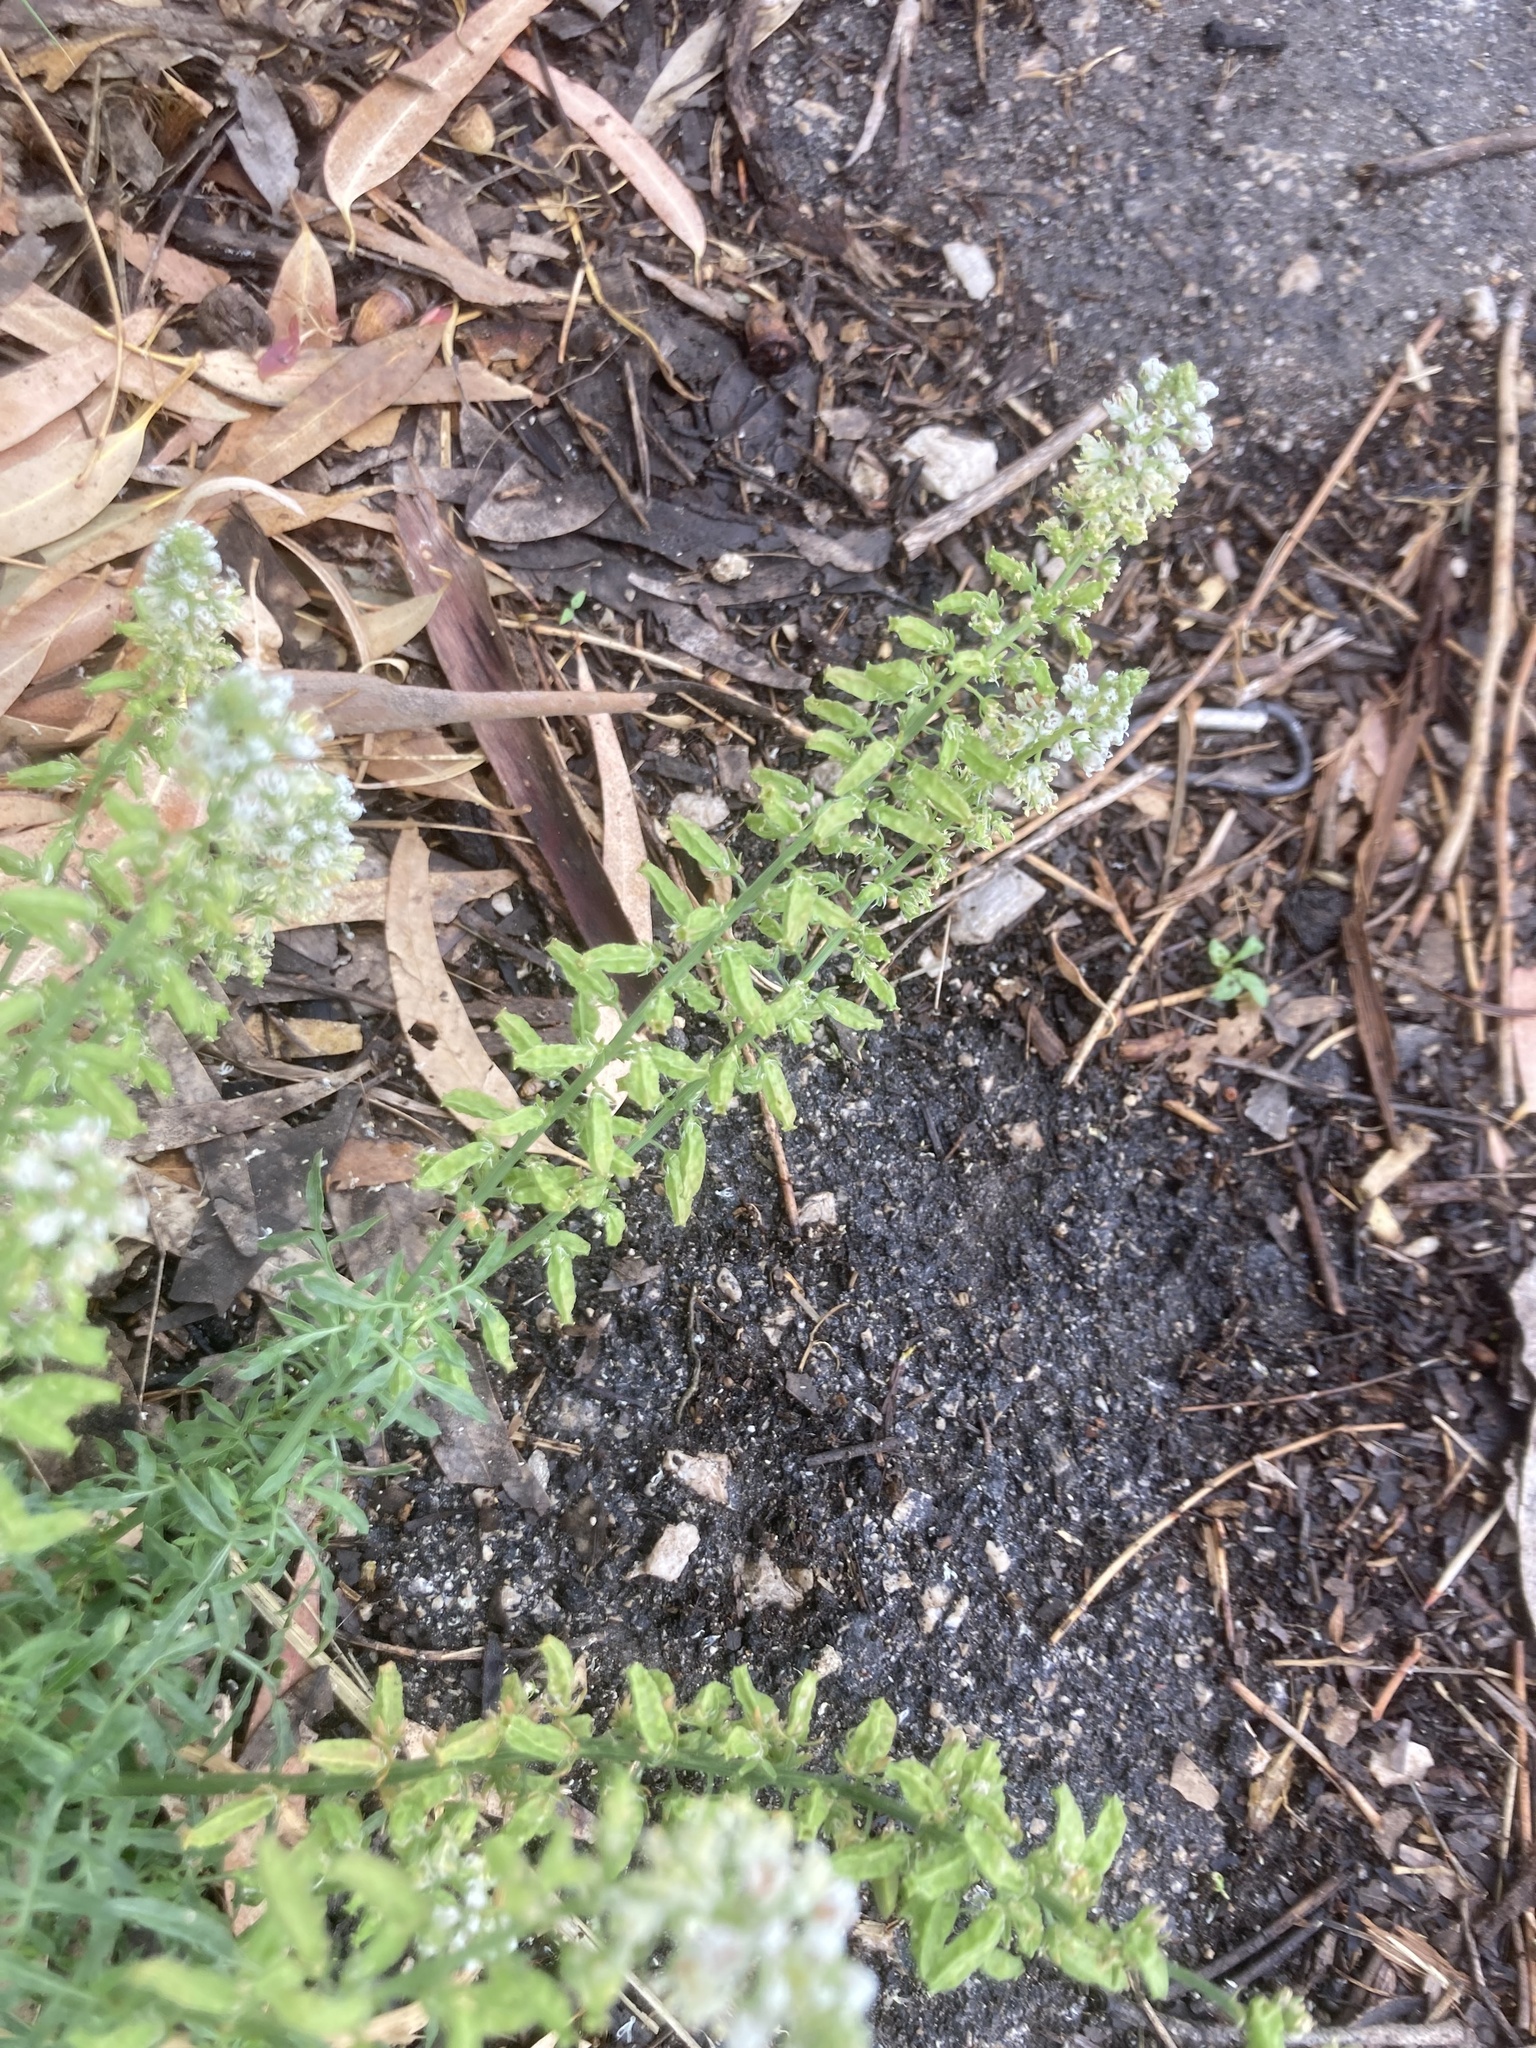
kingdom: Plantae
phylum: Tracheophyta
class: Magnoliopsida
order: Brassicales
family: Resedaceae
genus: Reseda
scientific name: Reseda alba
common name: White mignonette
